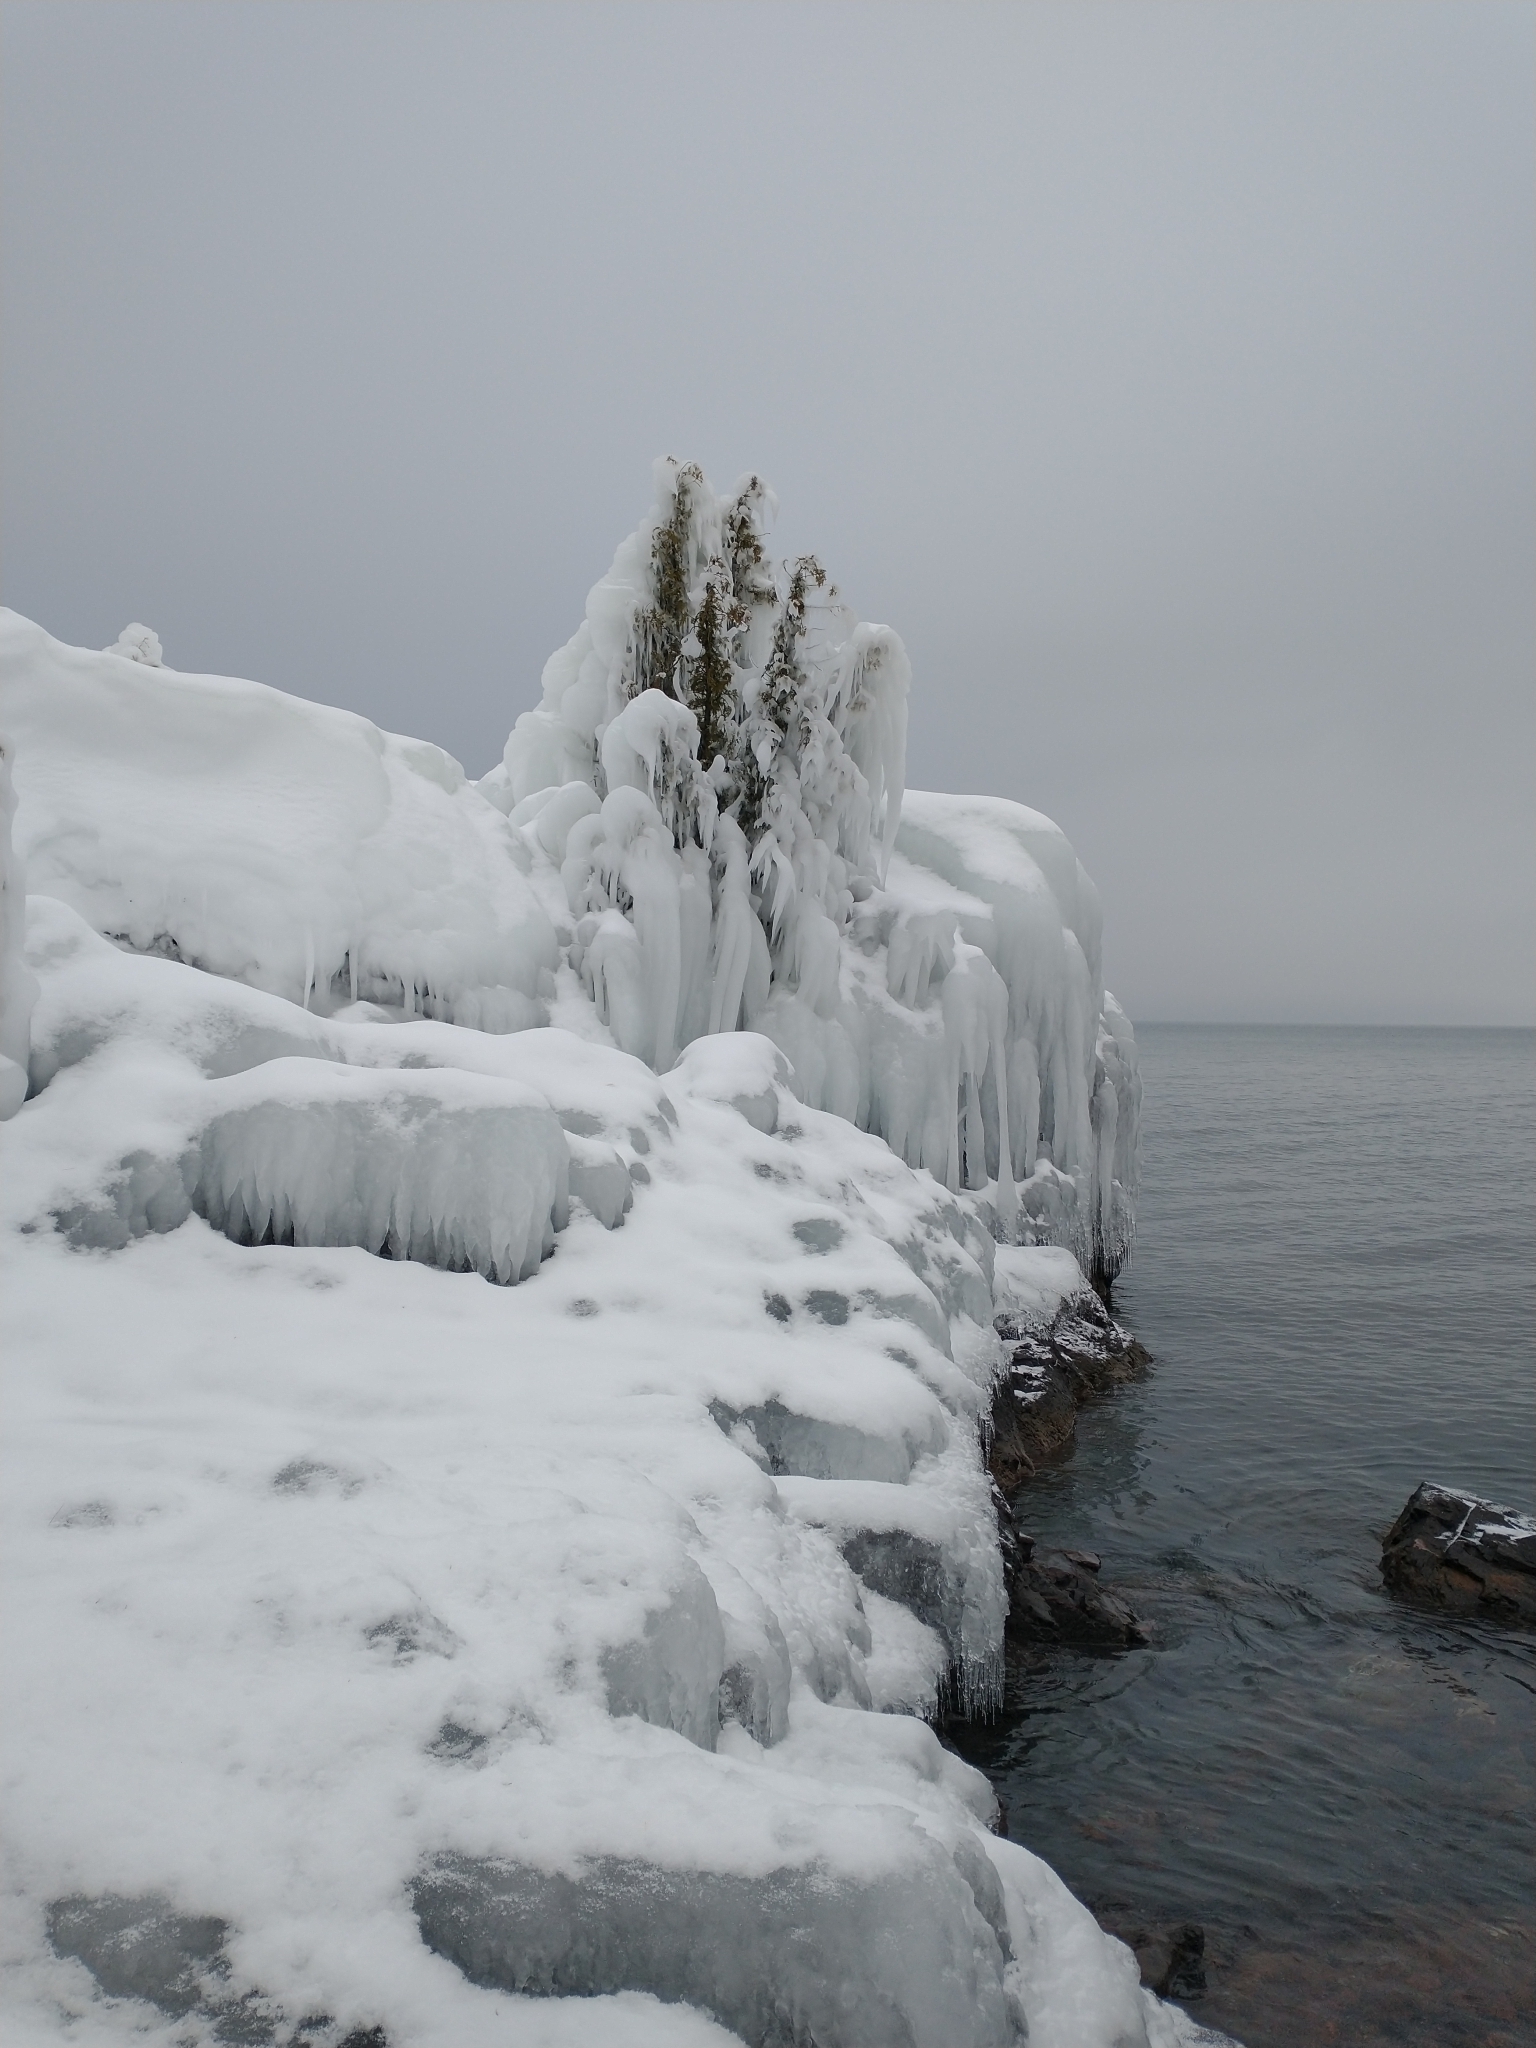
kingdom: Plantae
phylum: Tracheophyta
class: Pinopsida
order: Pinales
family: Cupressaceae
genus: Thuja
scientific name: Thuja occidentalis
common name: Northern white-cedar
